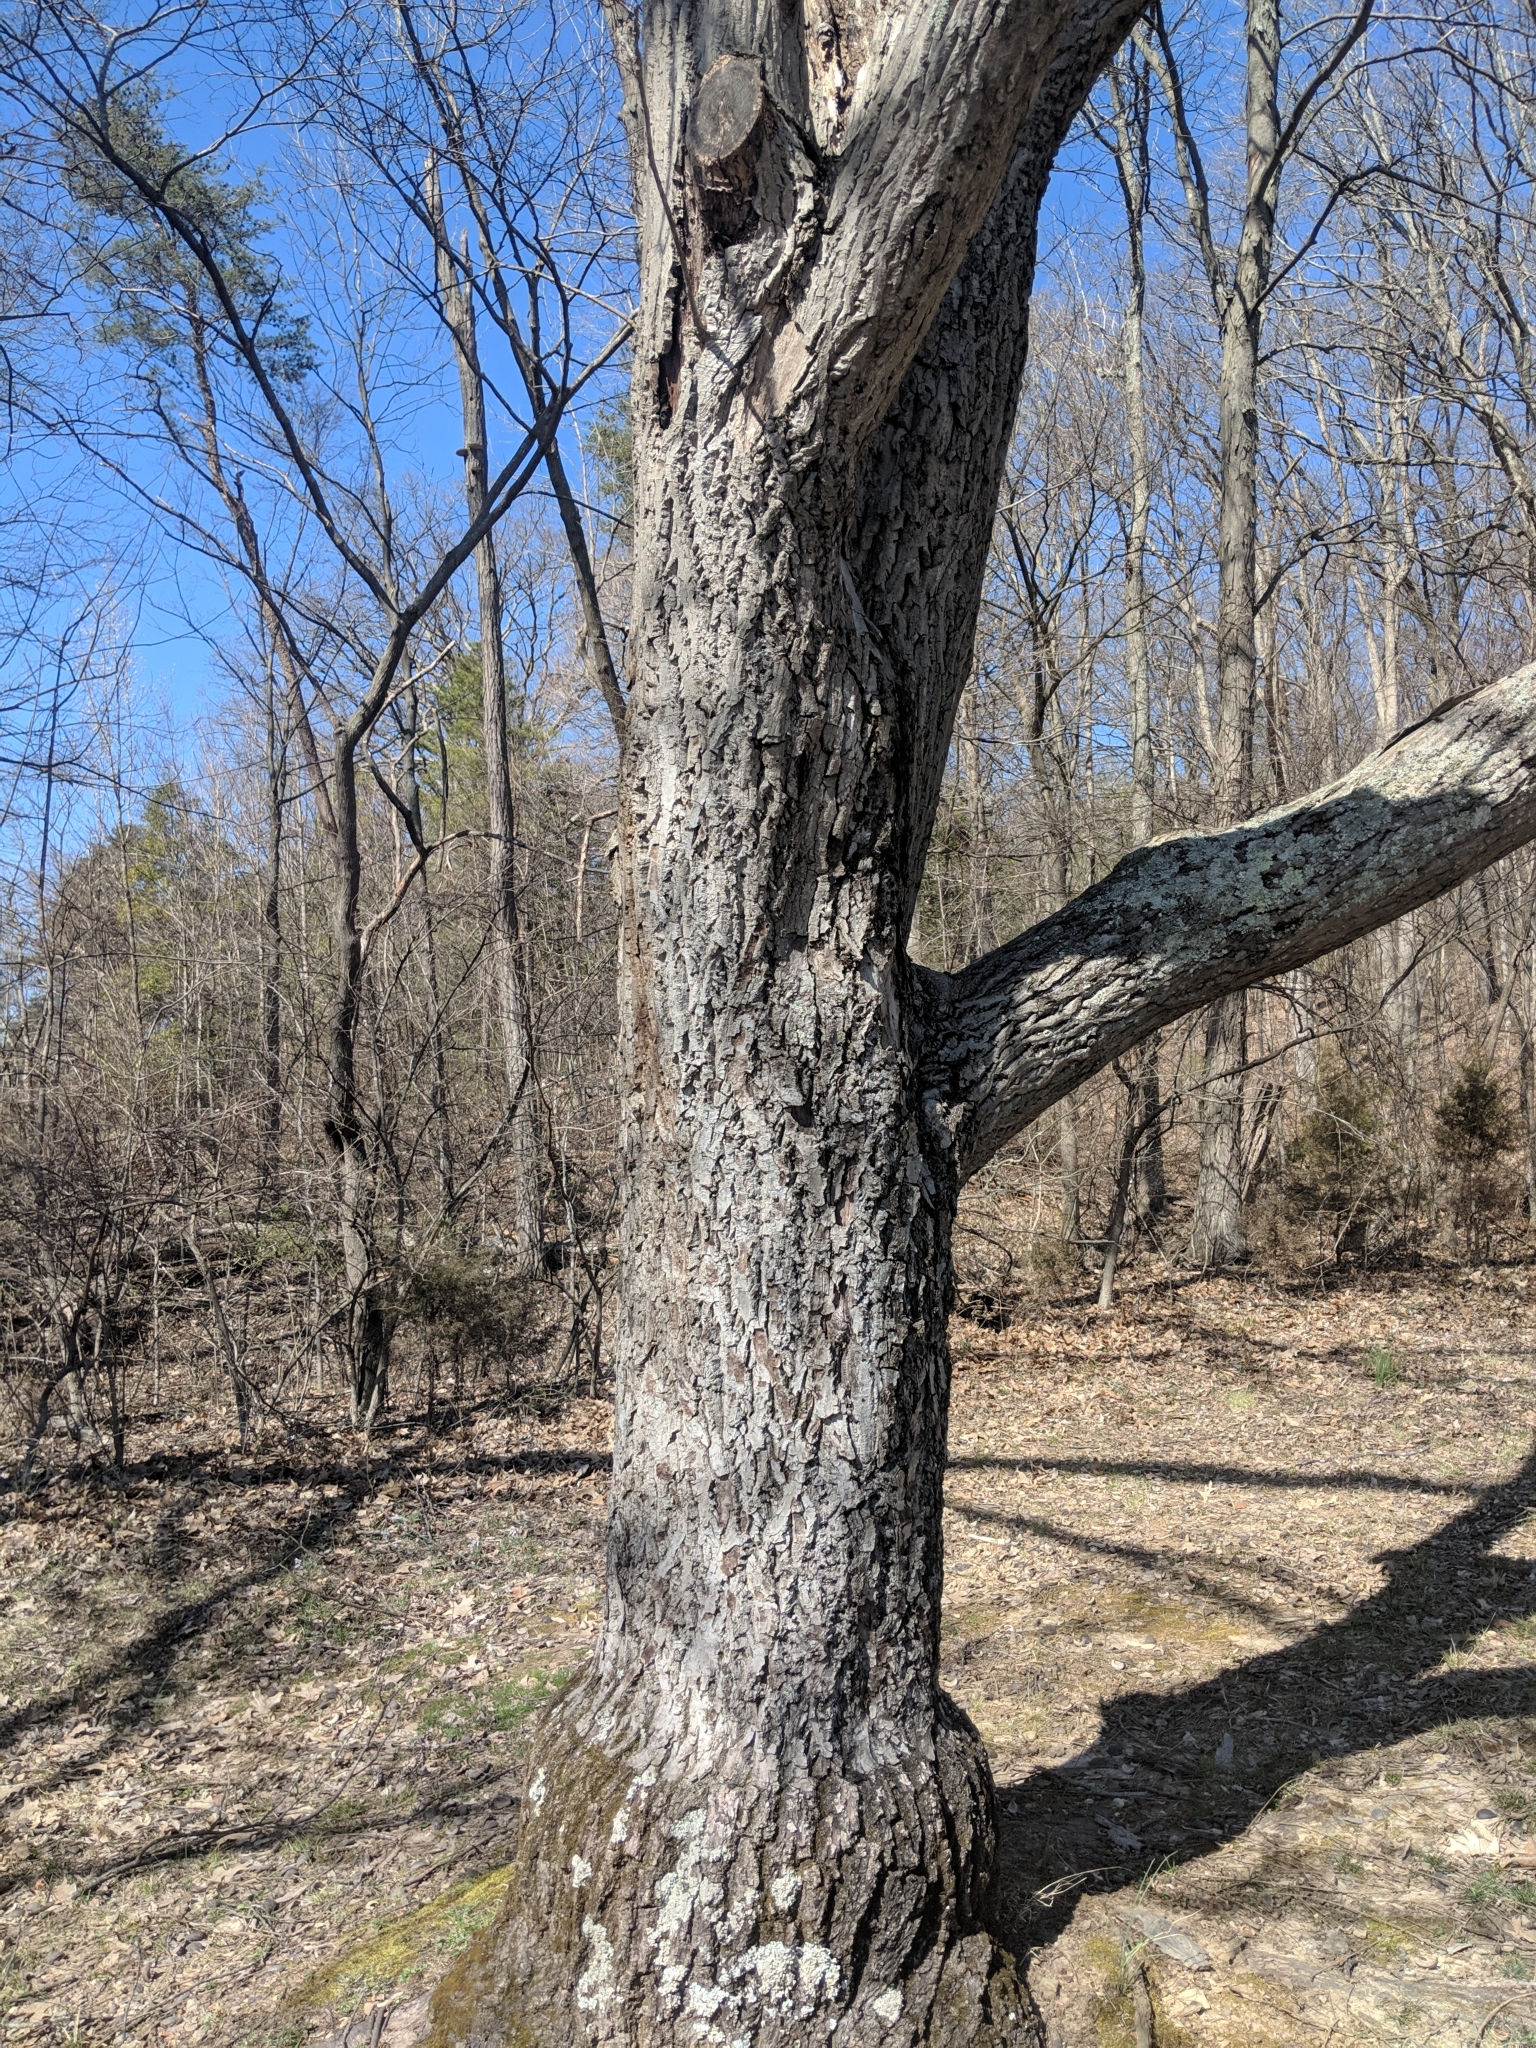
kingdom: Plantae
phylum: Tracheophyta
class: Magnoliopsida
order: Fagales
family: Juglandaceae
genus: Juglans
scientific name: Juglans cinerea
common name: Butternut
